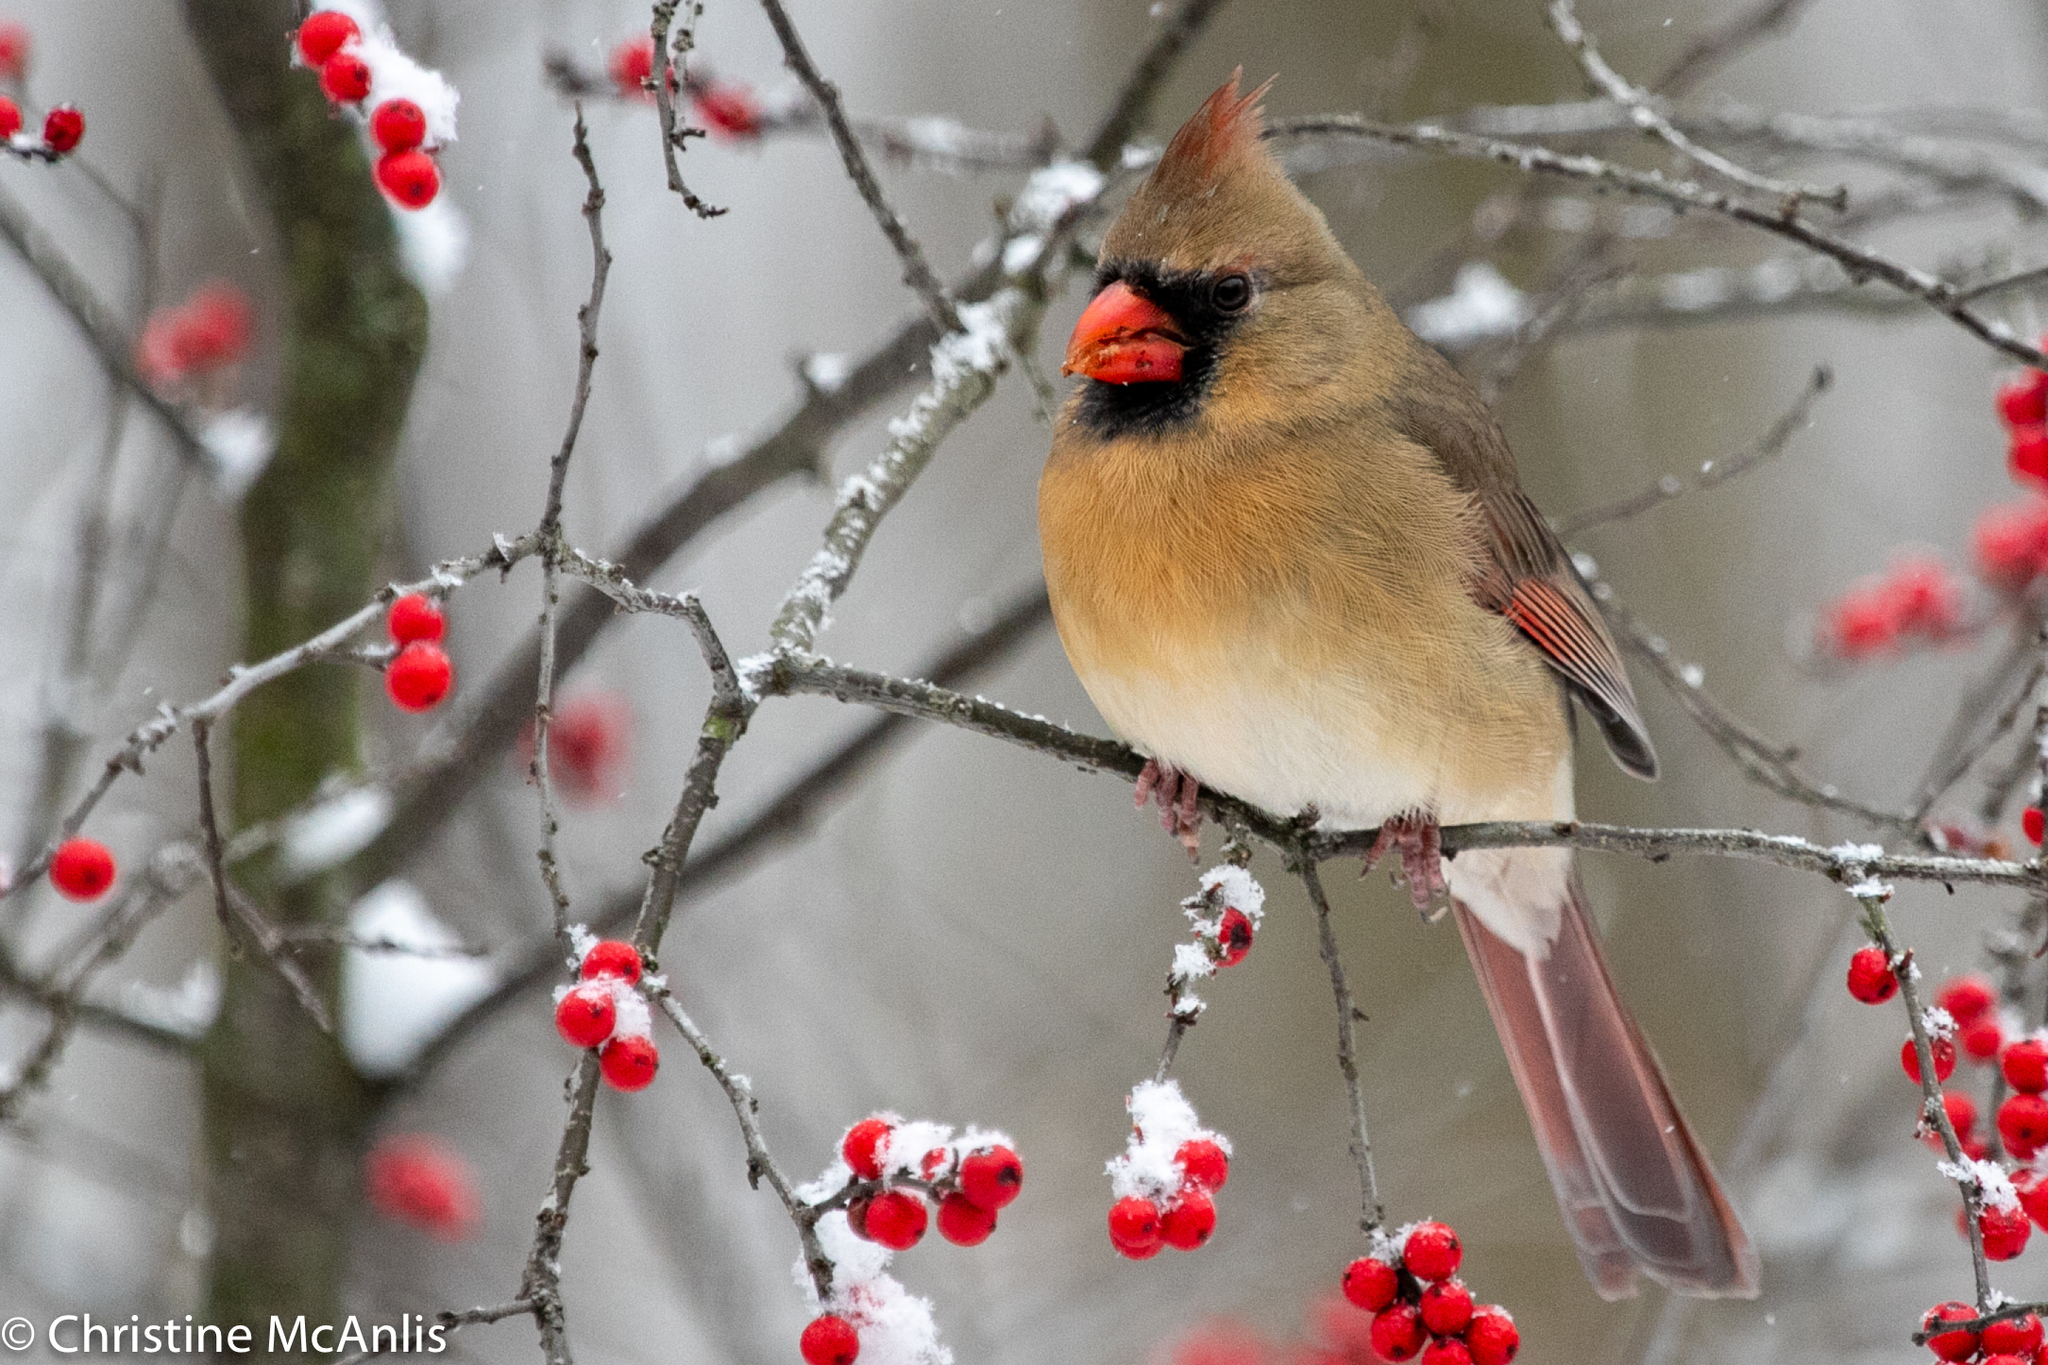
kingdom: Animalia
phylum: Chordata
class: Aves
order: Passeriformes
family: Cardinalidae
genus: Cardinalis
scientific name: Cardinalis cardinalis
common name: Northern cardinal
